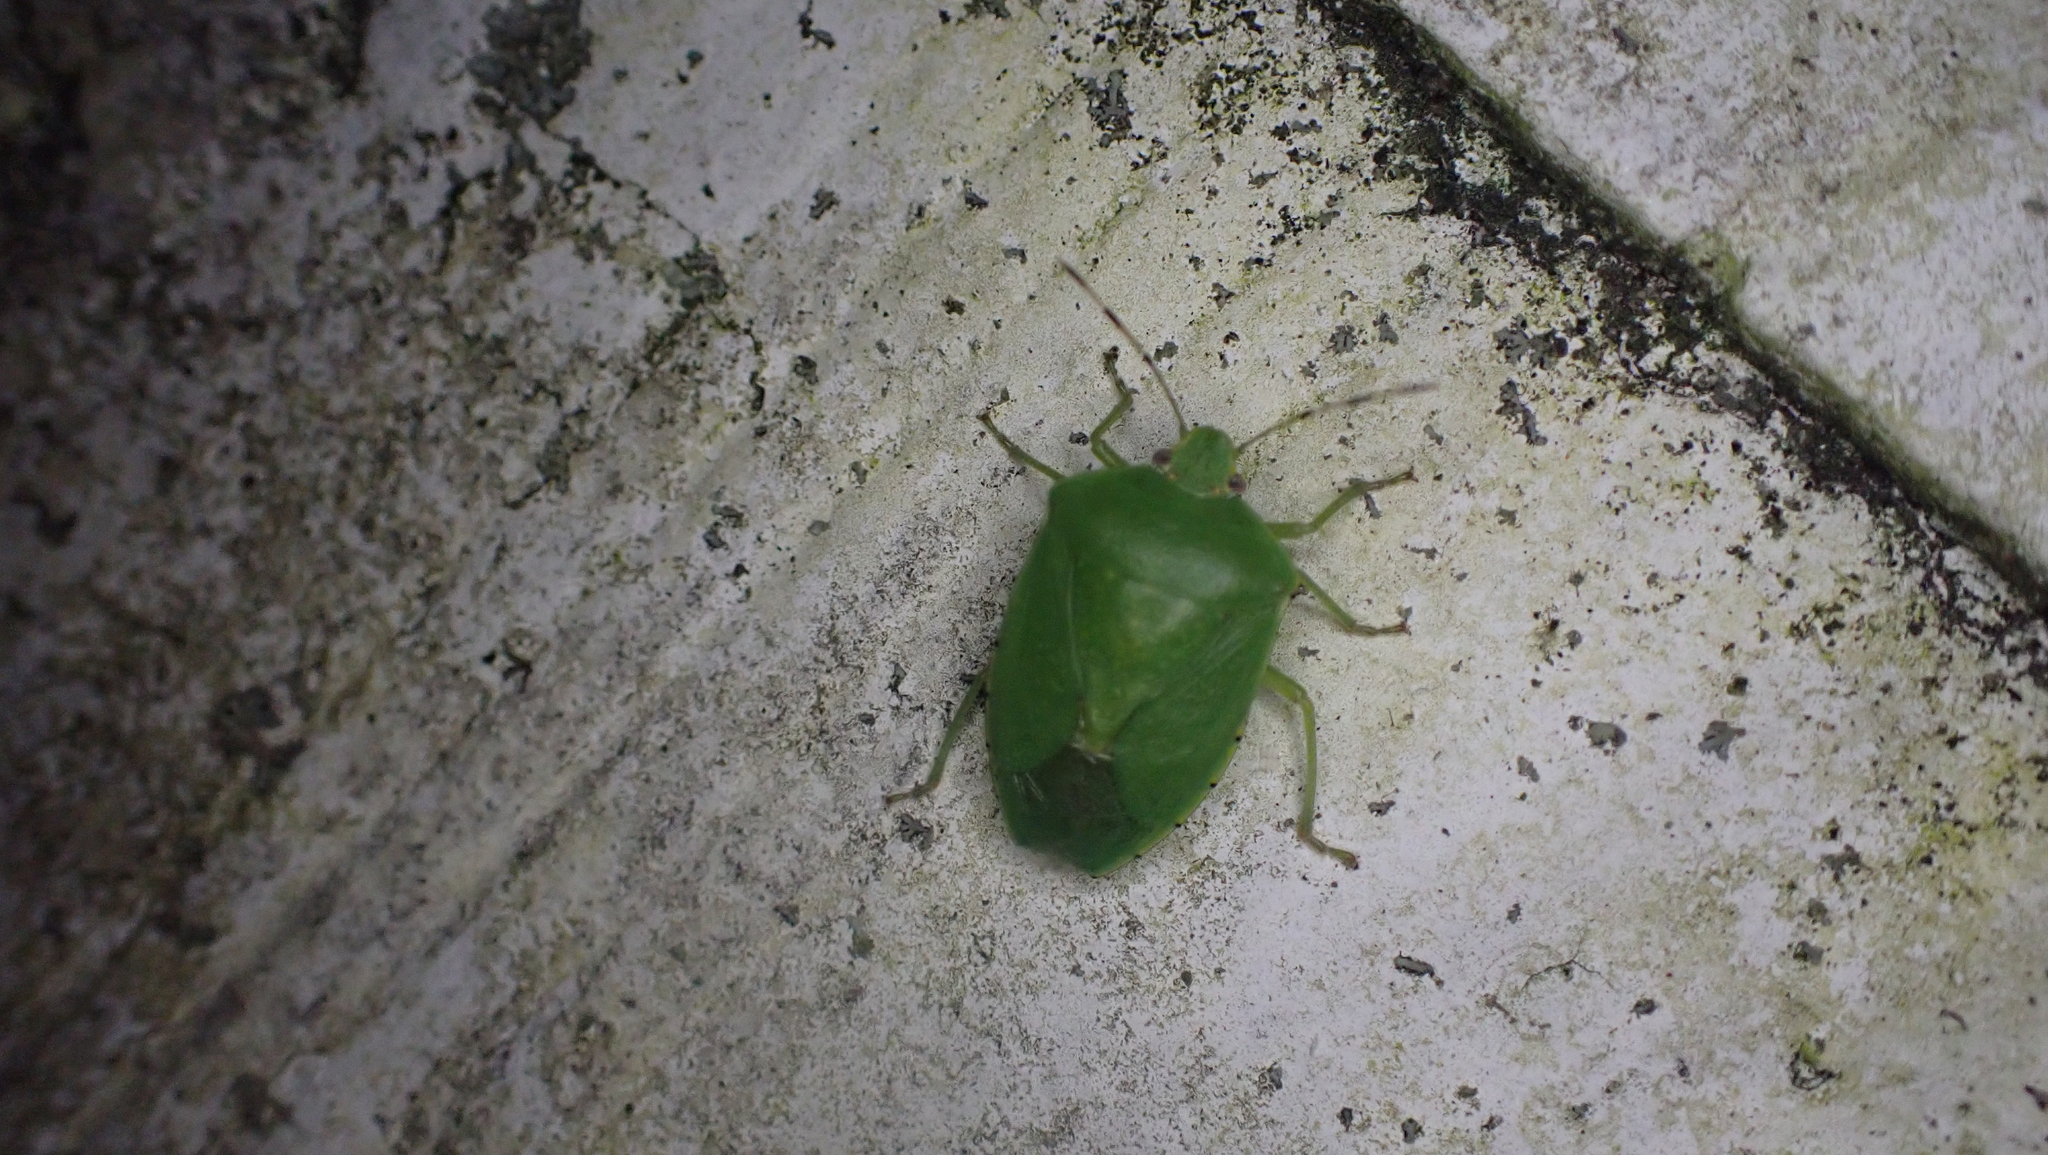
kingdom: Animalia
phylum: Arthropoda
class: Insecta
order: Hemiptera
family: Pentatomidae
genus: Chinavia
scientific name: Chinavia hilaris
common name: Green stink bug
